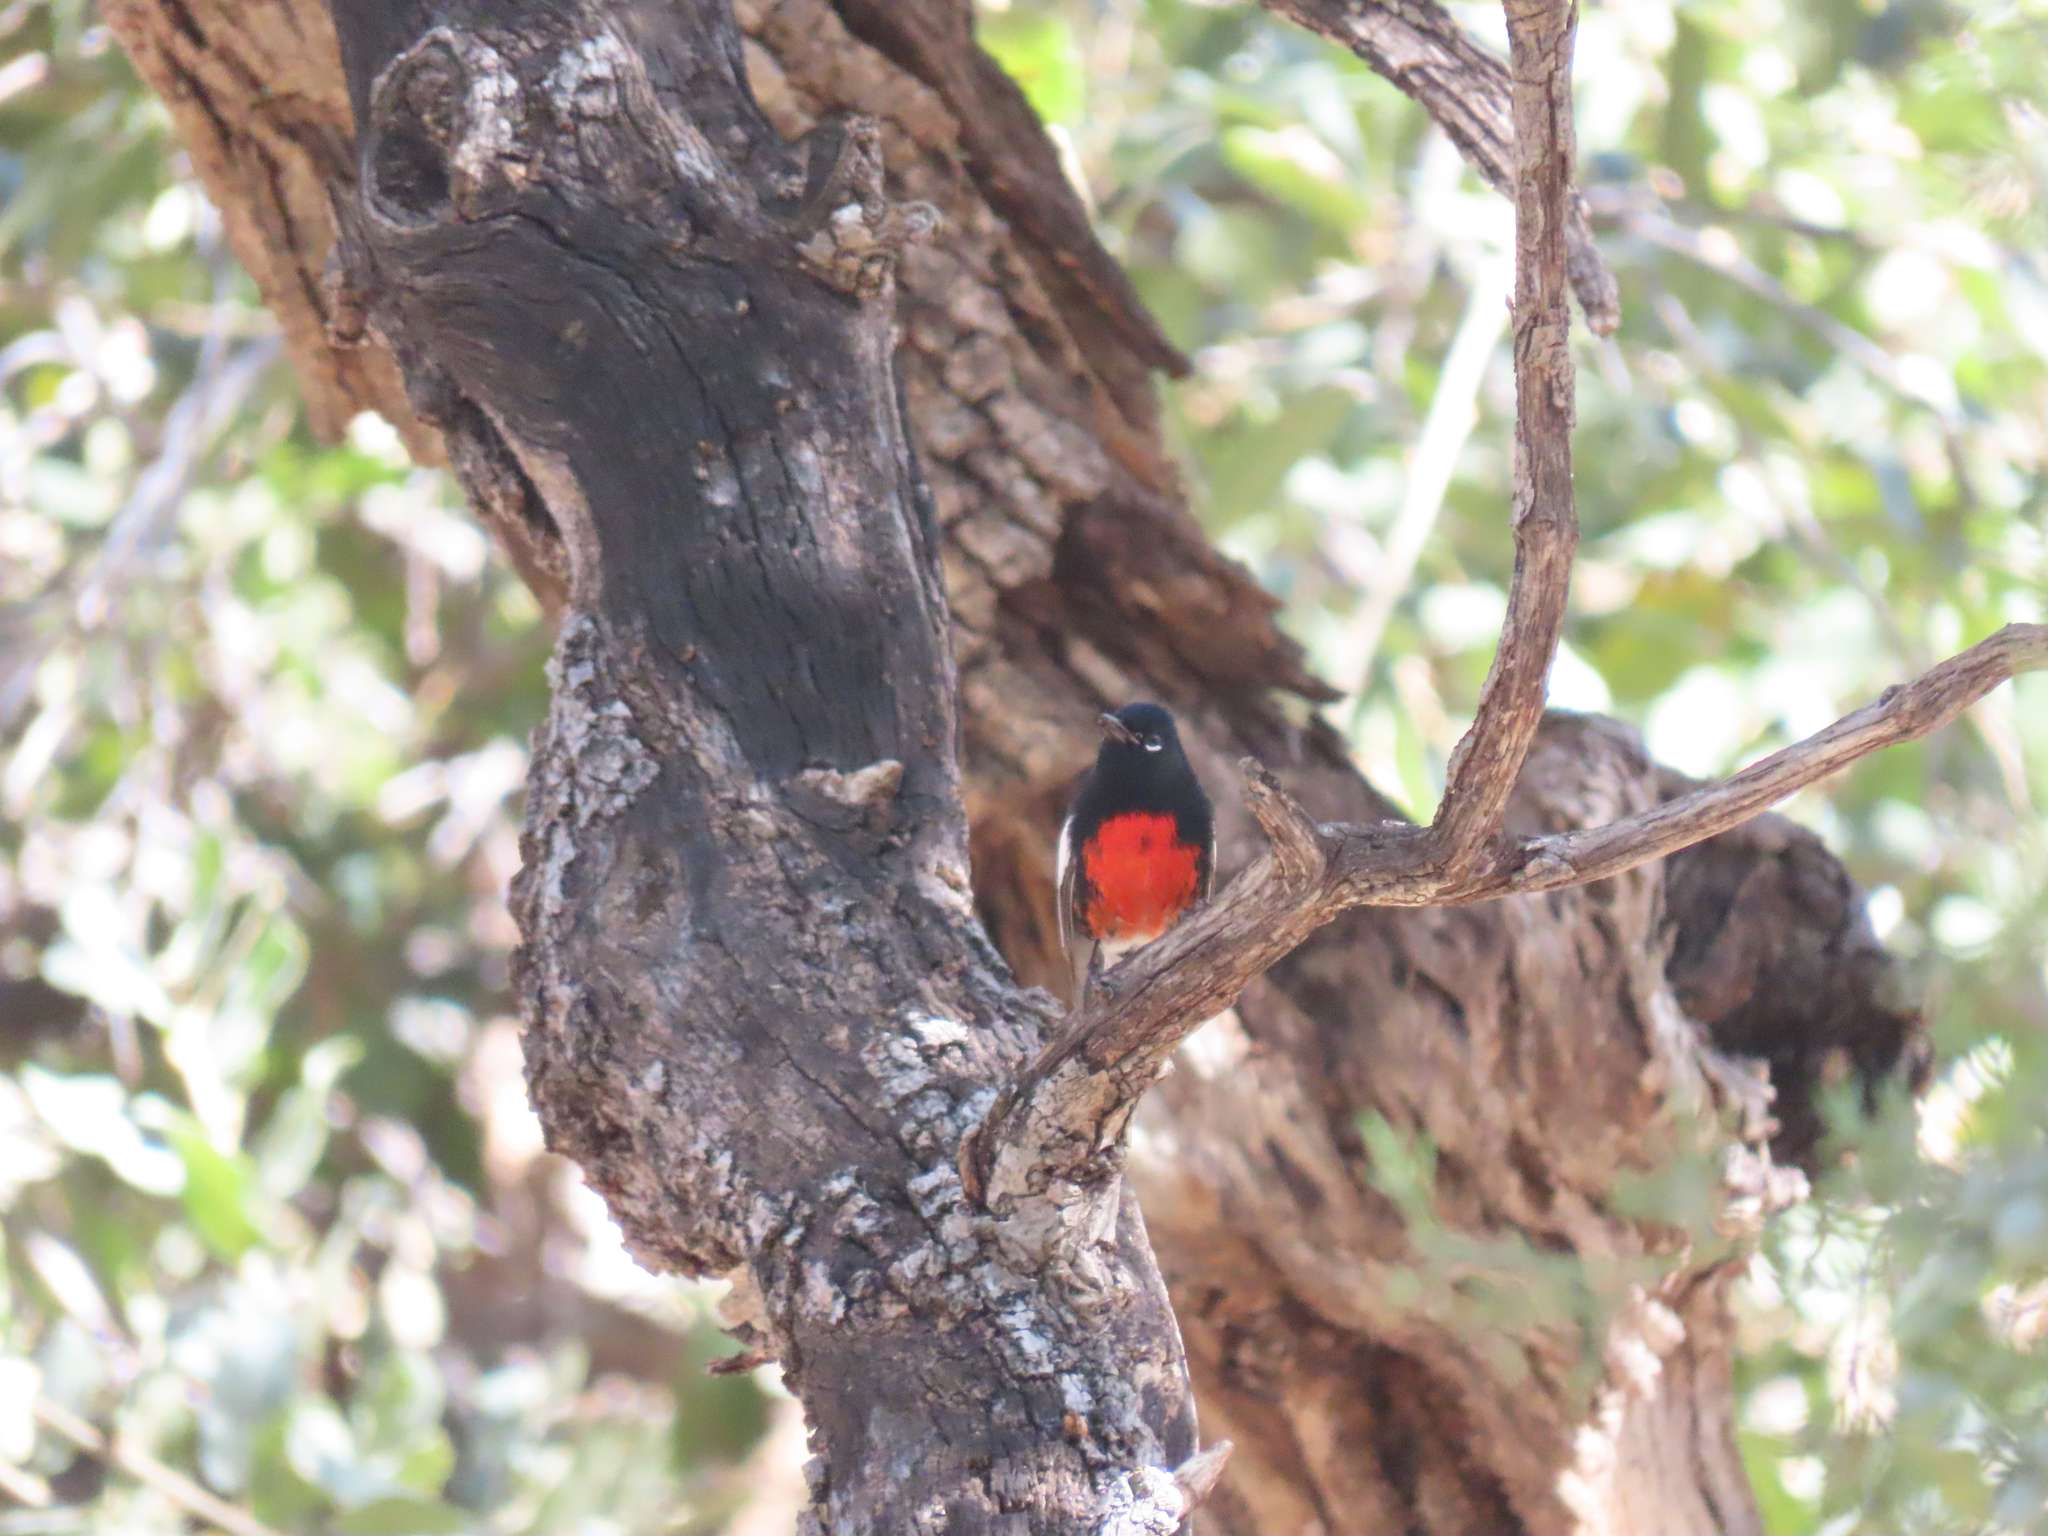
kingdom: Animalia
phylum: Chordata
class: Aves
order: Passeriformes
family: Parulidae
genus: Myioborus
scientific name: Myioborus pictus
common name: Painted whitestart
